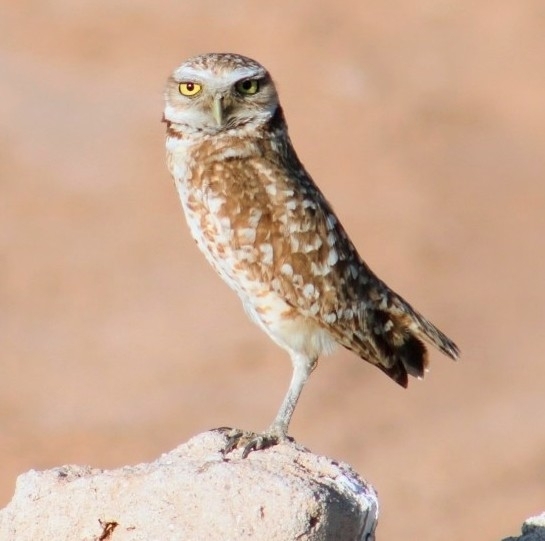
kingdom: Animalia
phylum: Chordata
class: Aves
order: Strigiformes
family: Strigidae
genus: Athene
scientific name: Athene cunicularia
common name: Burrowing owl
